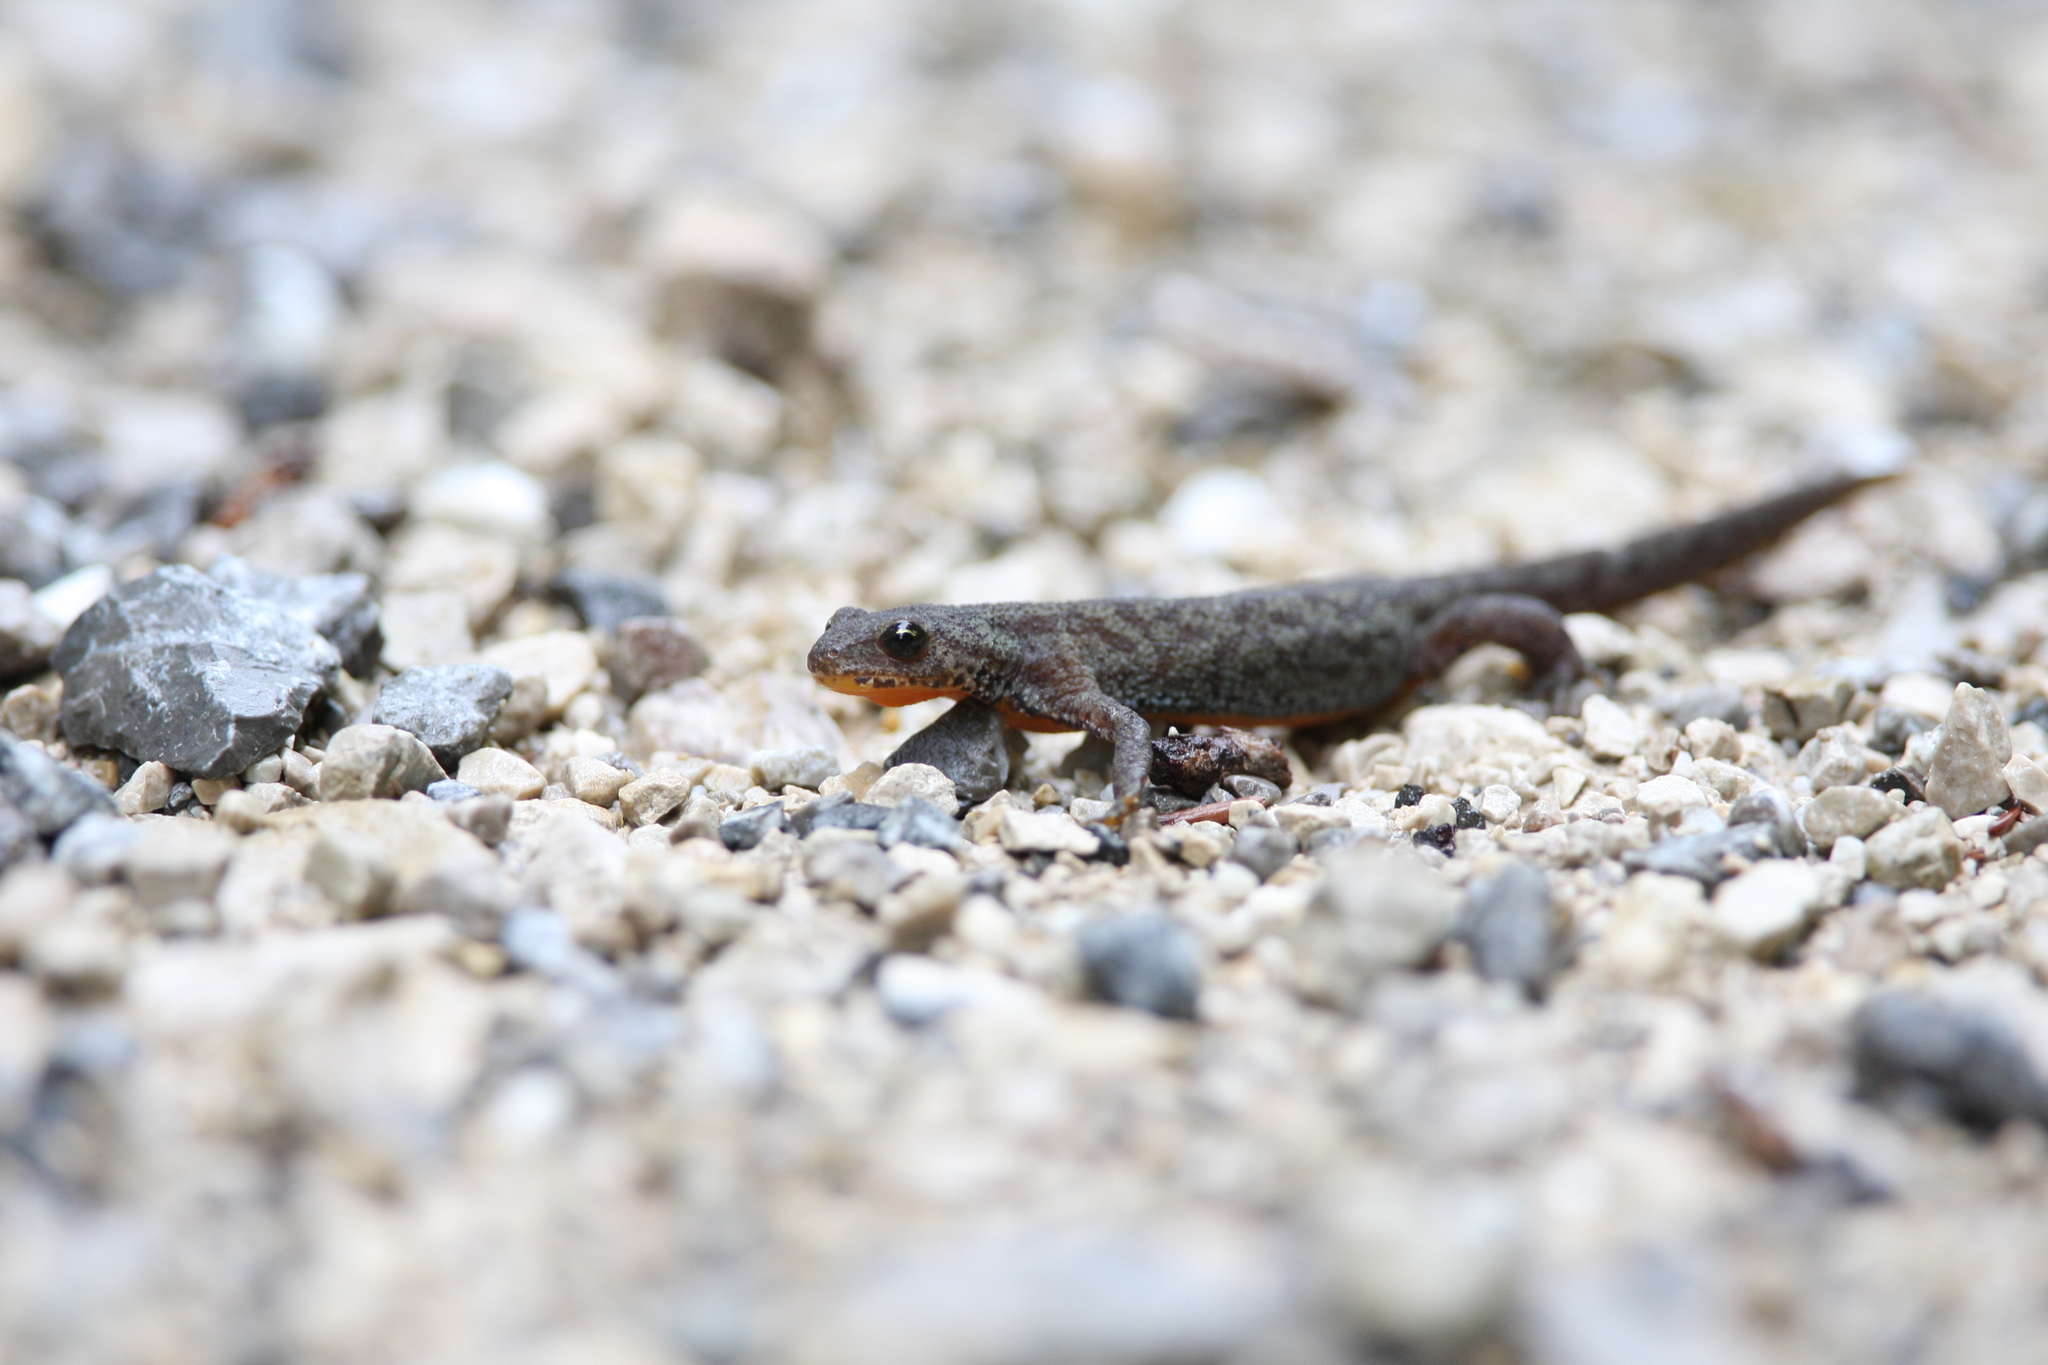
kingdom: Animalia
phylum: Chordata
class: Amphibia
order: Caudata
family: Salamandridae
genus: Ichthyosaura
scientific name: Ichthyosaura alpestris
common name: Alpine newt
